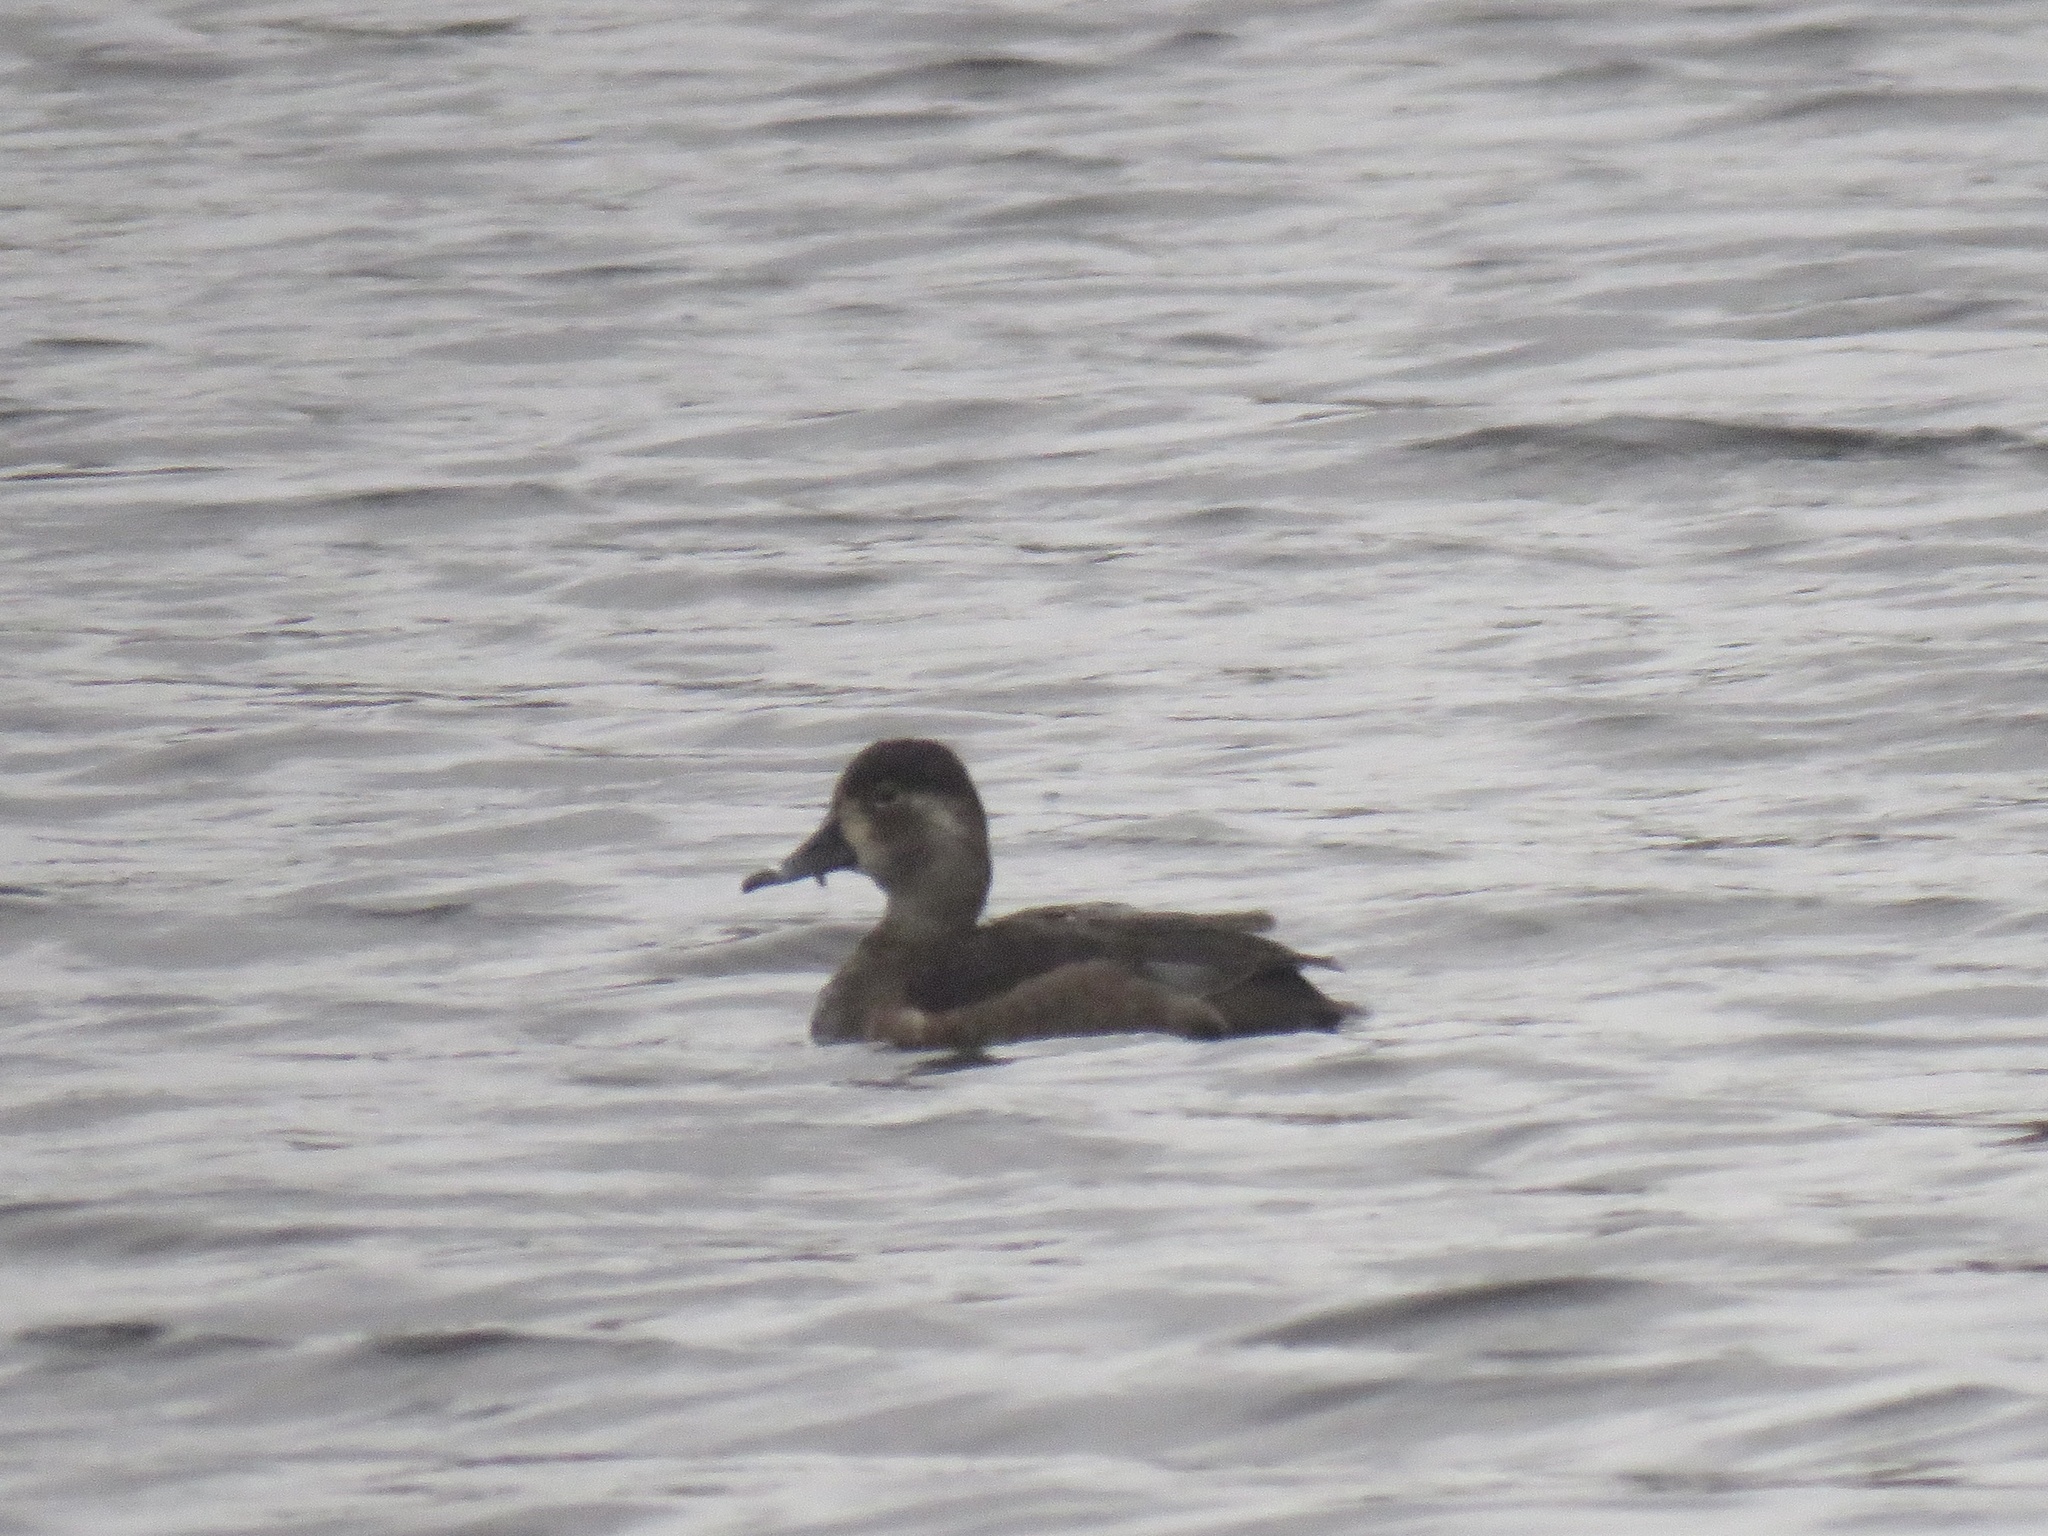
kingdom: Animalia
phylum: Chordata
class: Aves
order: Anseriformes
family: Anatidae
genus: Aythya
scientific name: Aythya collaris
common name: Ring-necked duck
